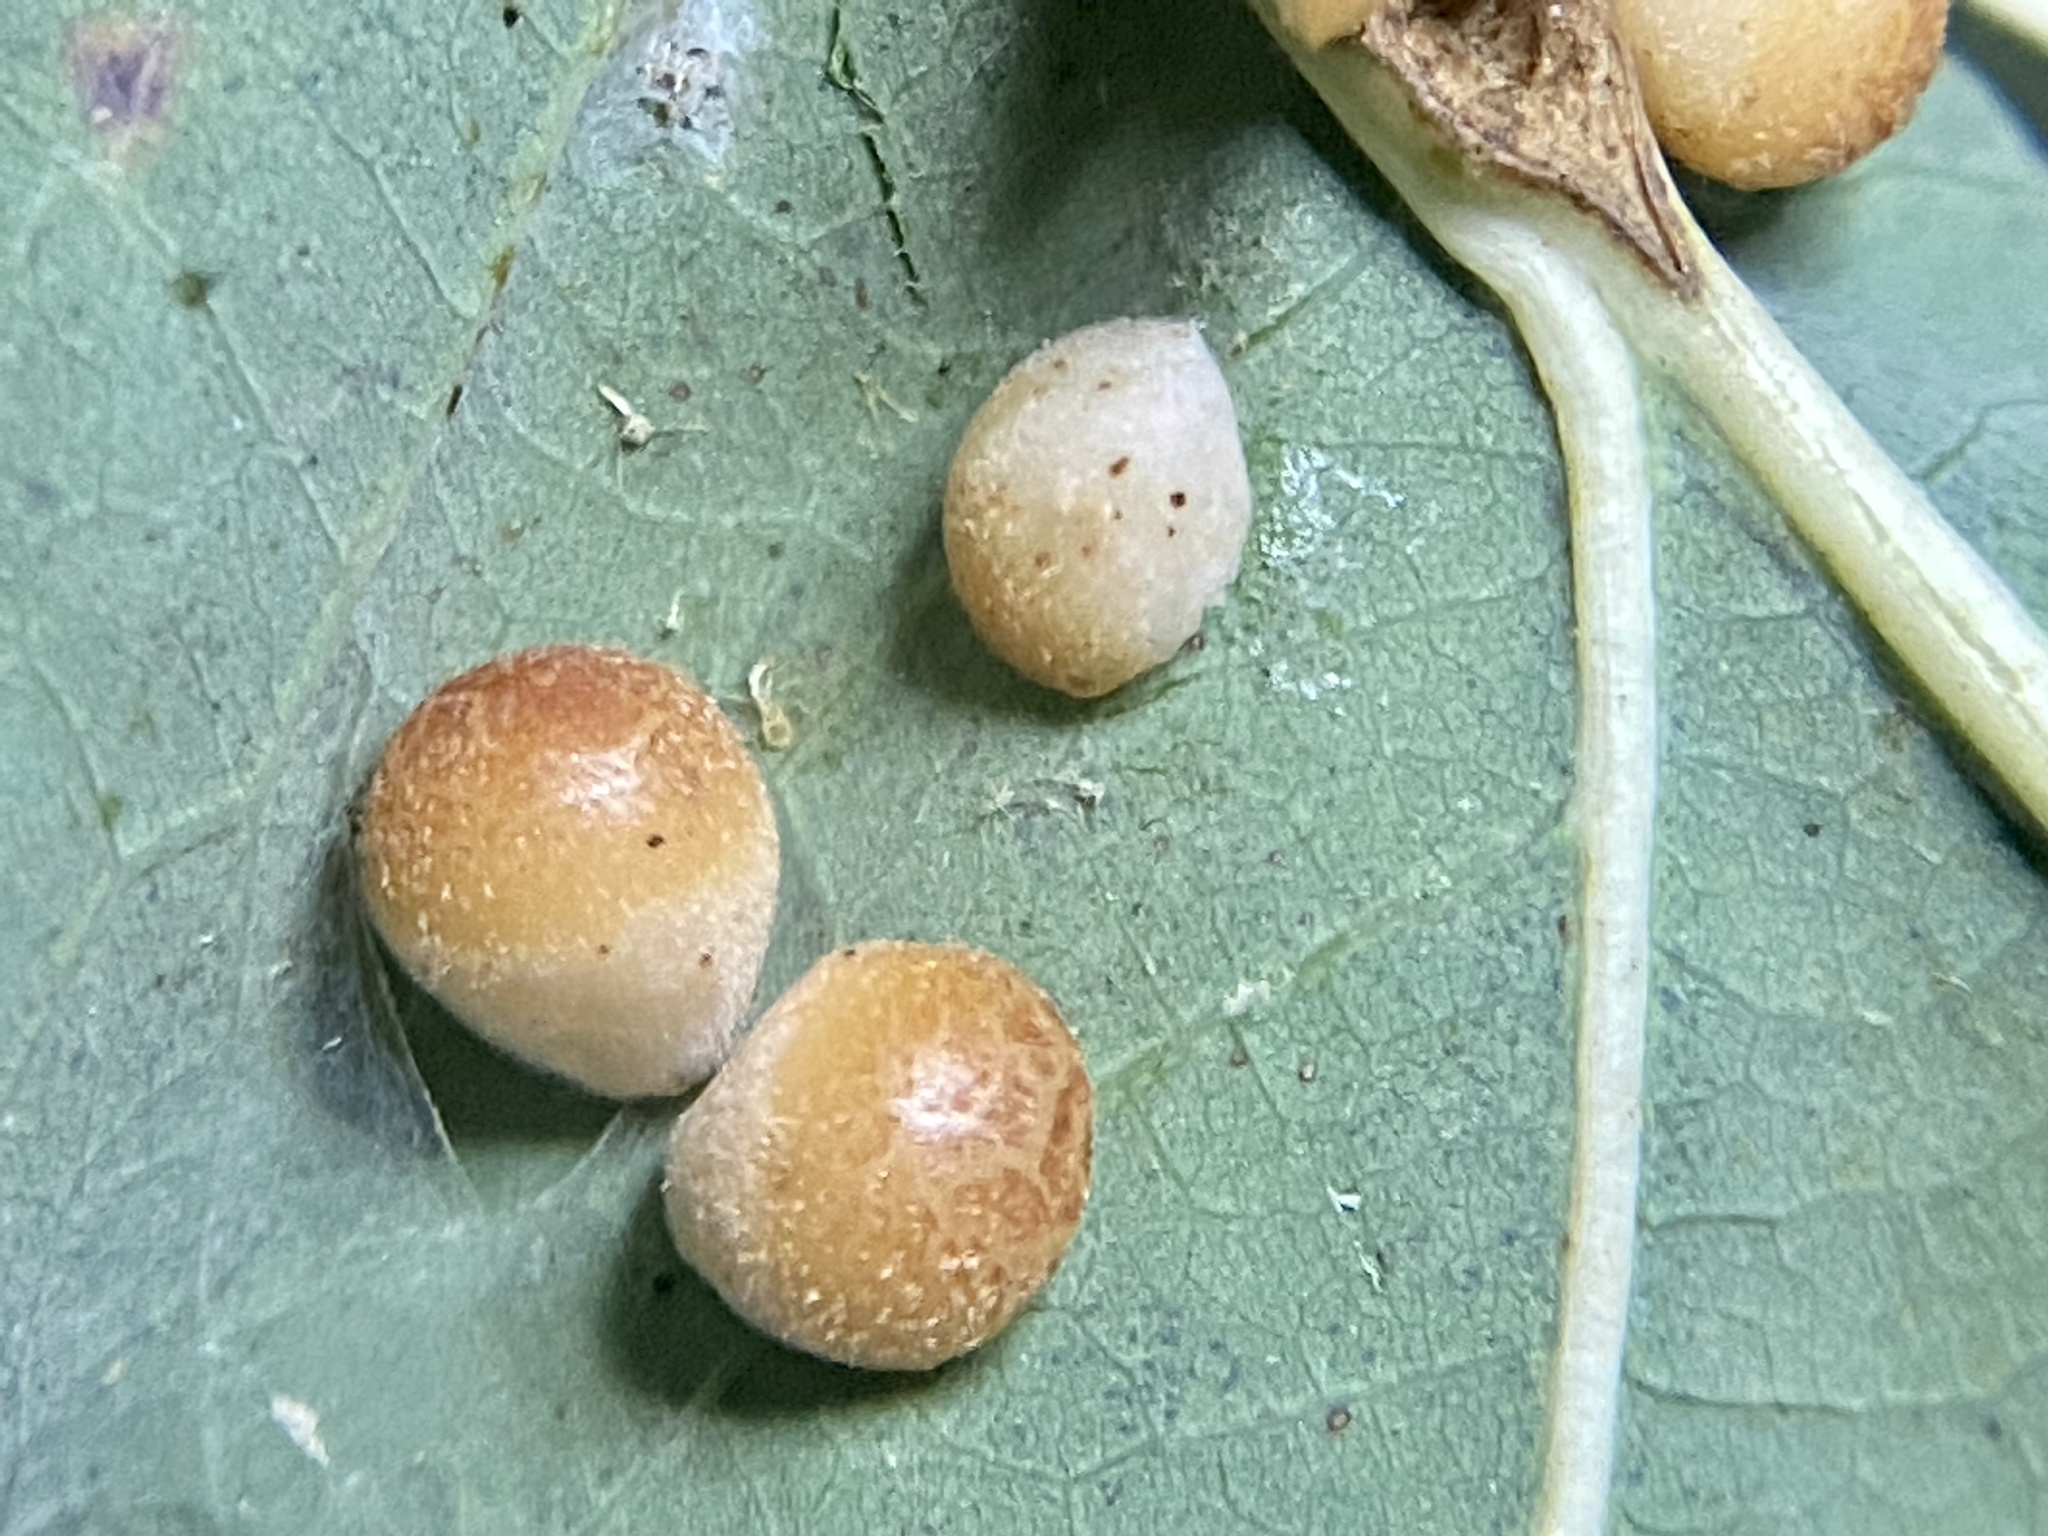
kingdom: Animalia
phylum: Arthropoda
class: Insecta
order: Hymenoptera
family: Cynipidae
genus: Andricus
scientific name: Andricus
